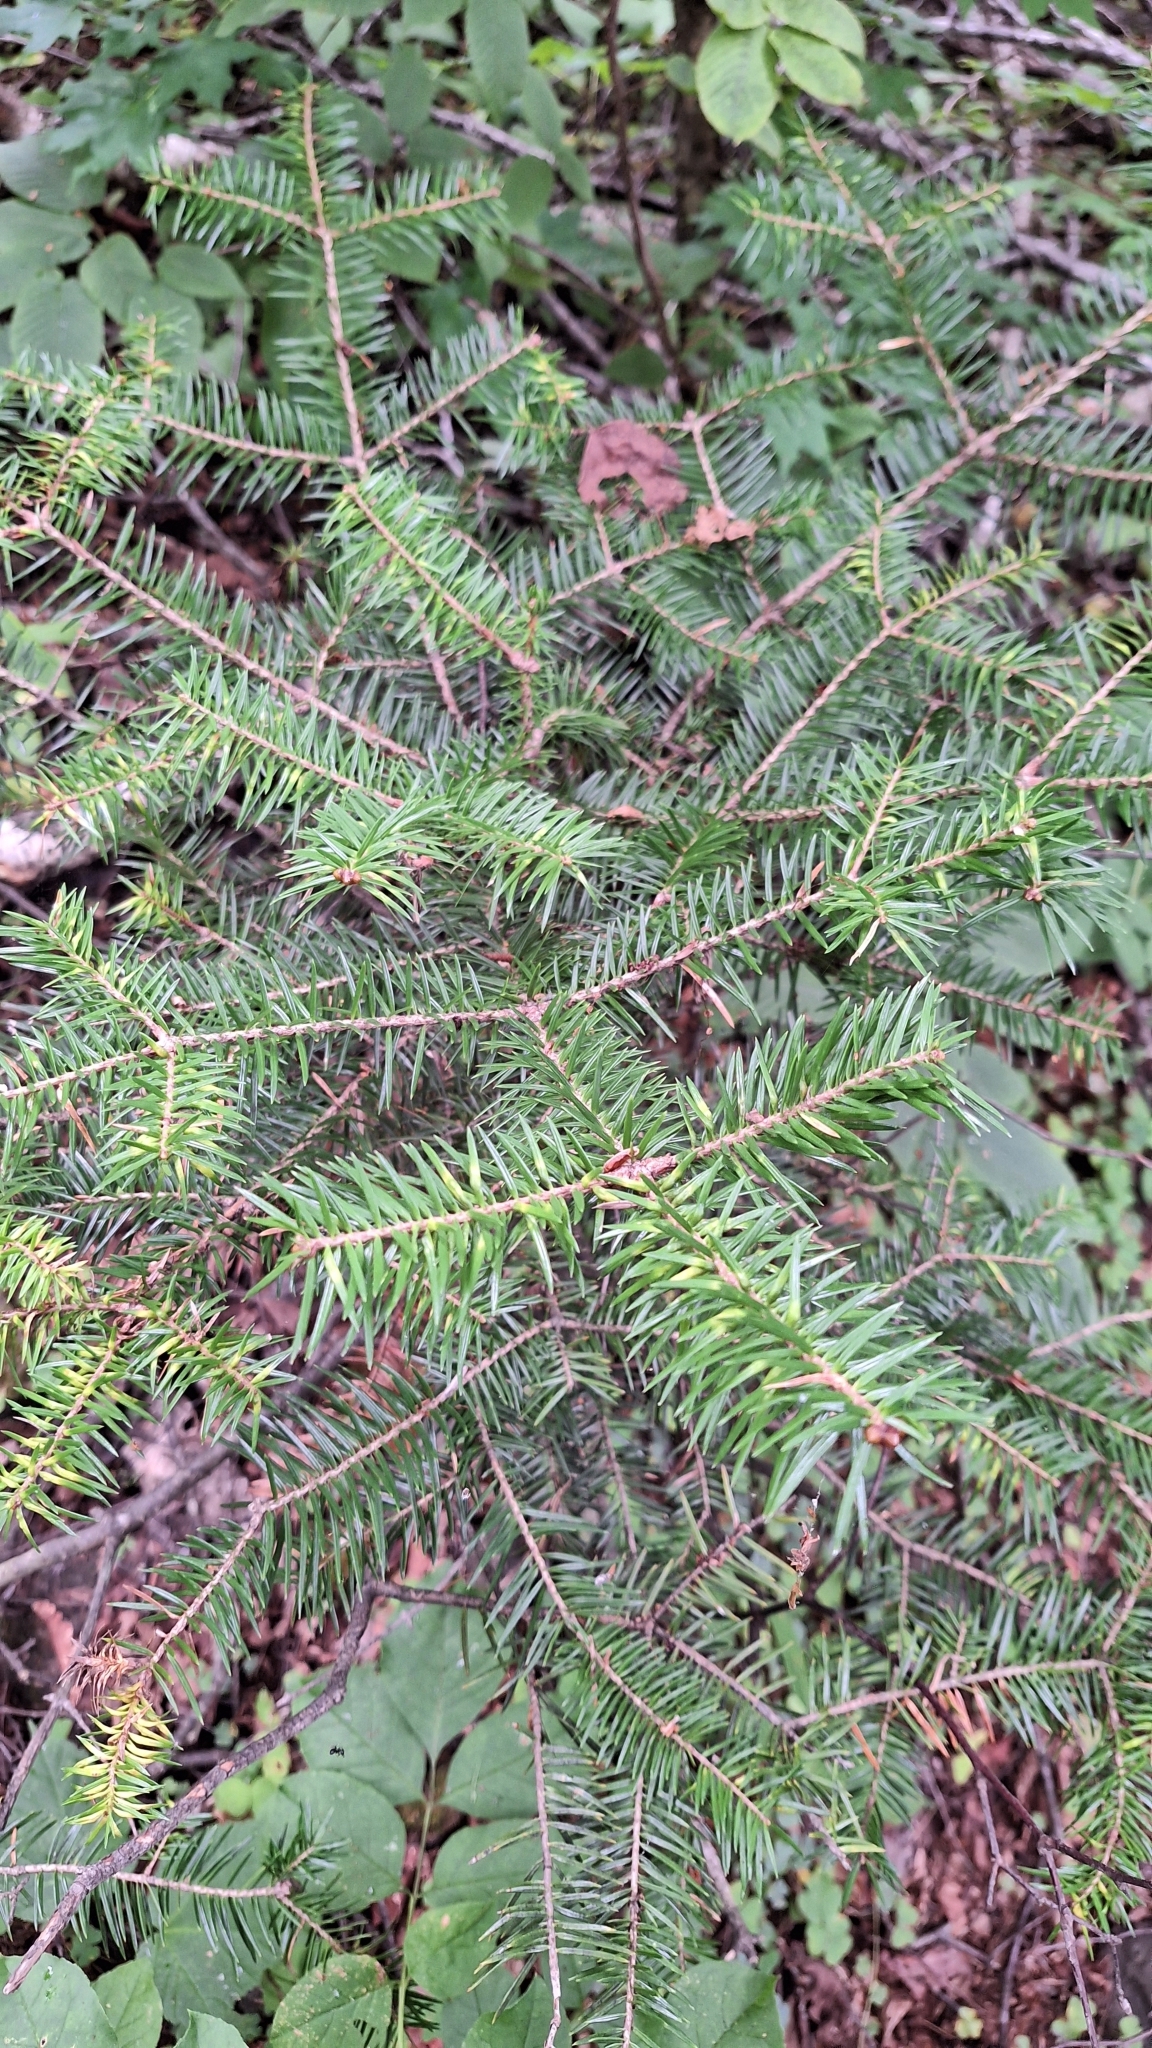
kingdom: Plantae
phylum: Tracheophyta
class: Pinopsida
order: Pinales
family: Pinaceae
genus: Abies
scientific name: Abies holophylla
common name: Manchurian fir
